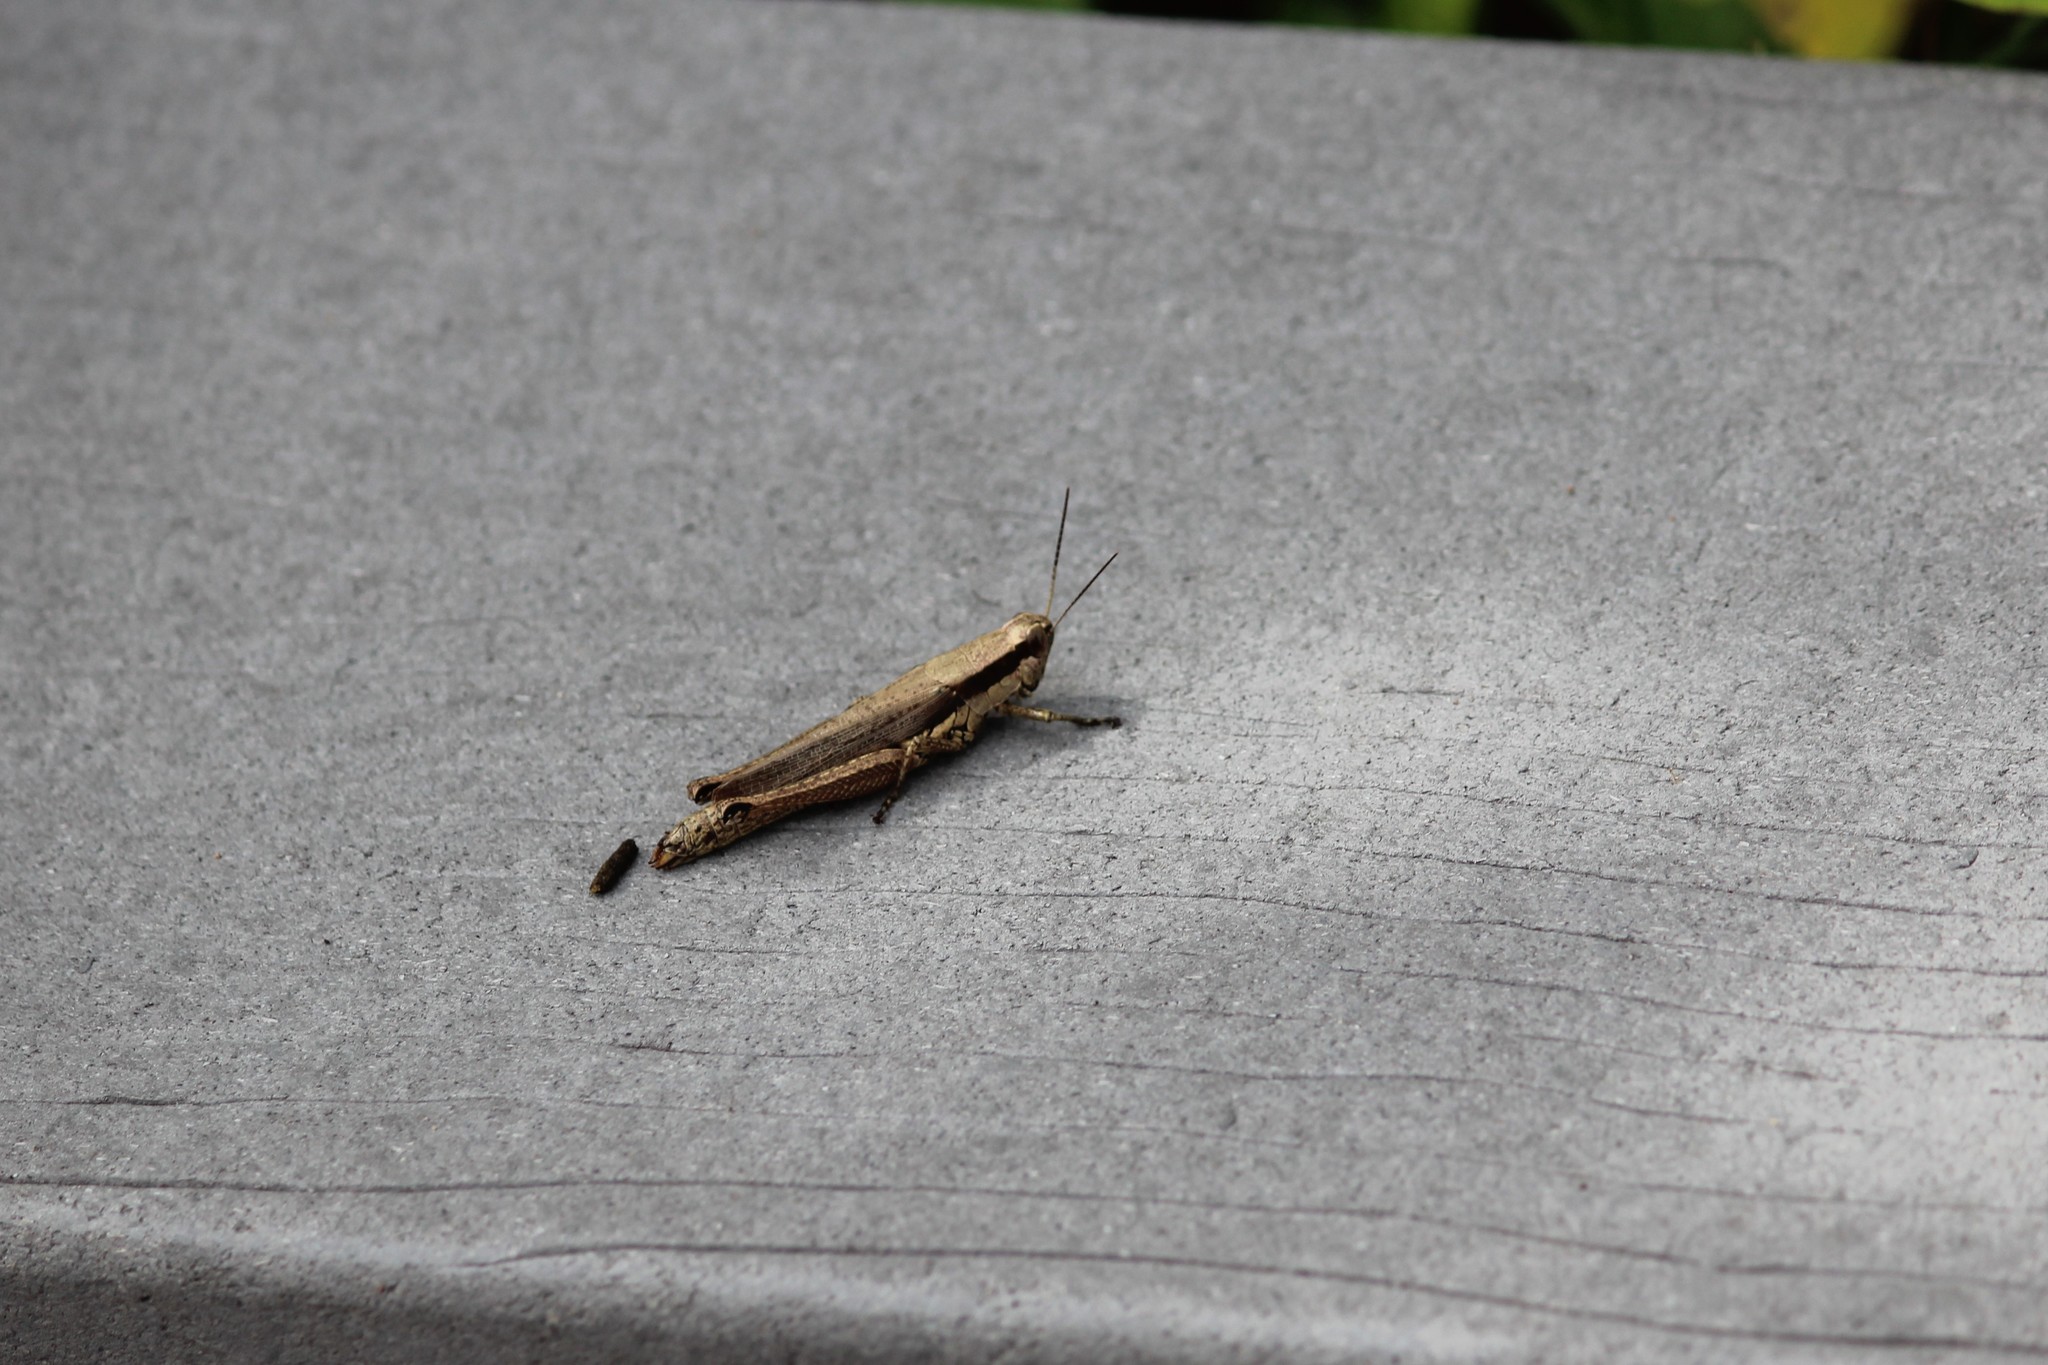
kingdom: Animalia
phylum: Arthropoda
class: Insecta
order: Orthoptera
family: Acrididae
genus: Paroxya
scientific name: Paroxya clavuligera
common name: Olive-green swamp grasshopper
